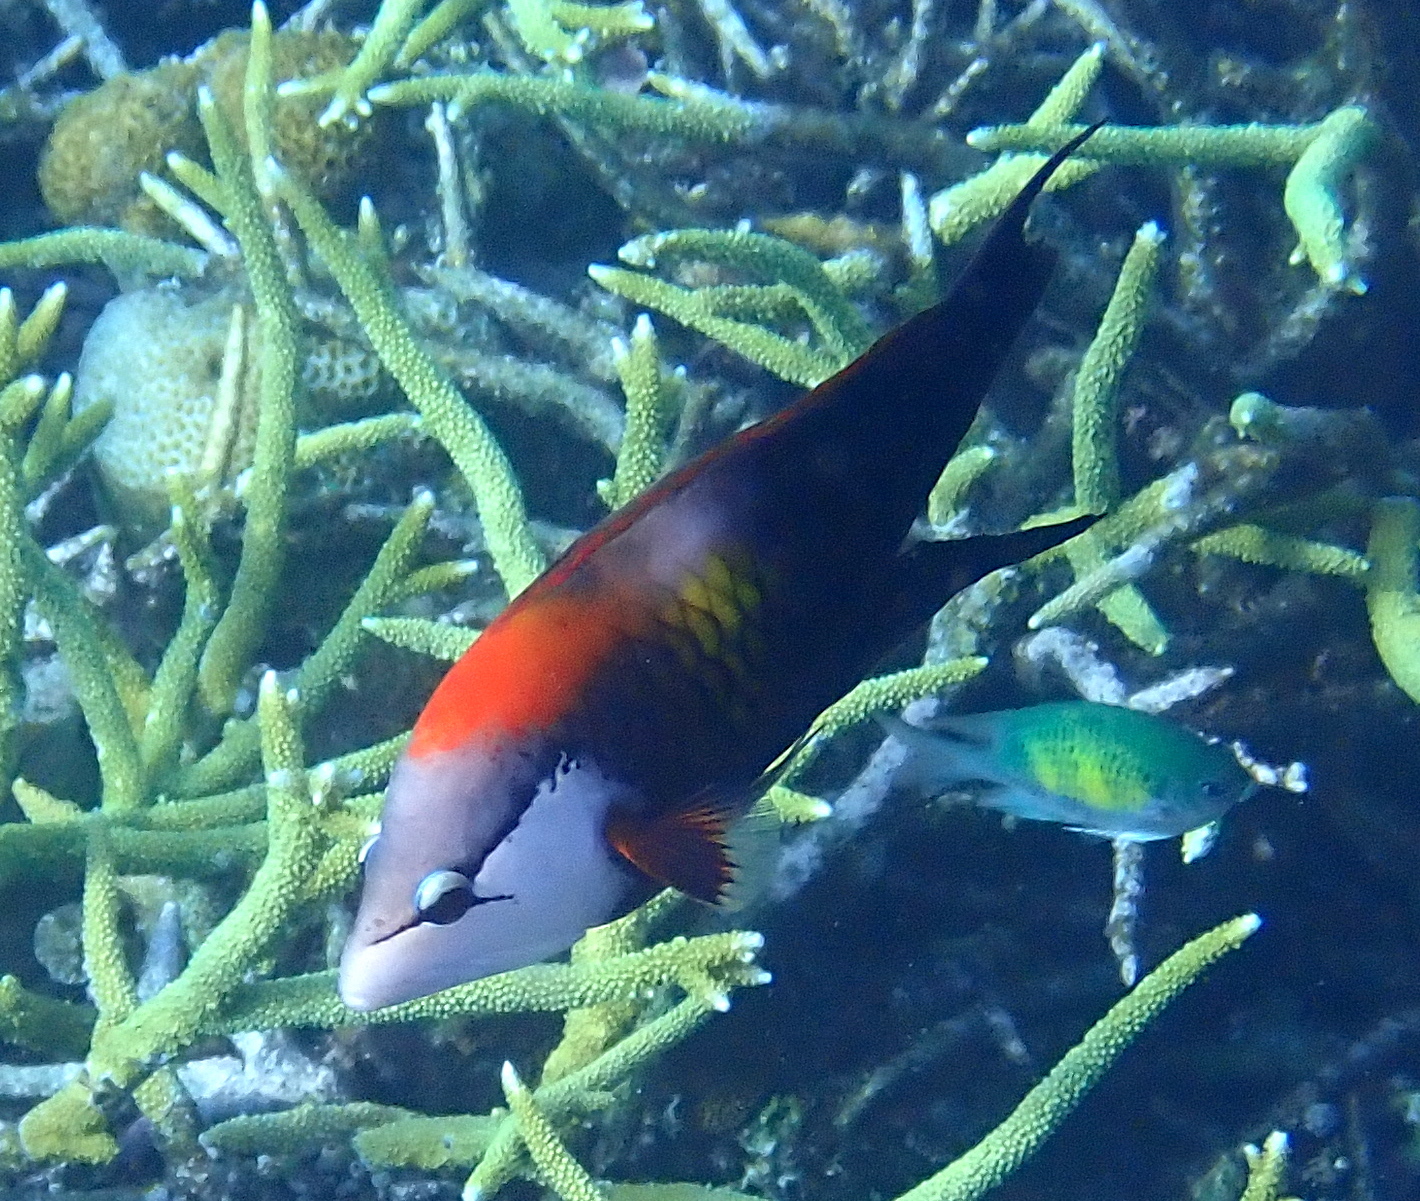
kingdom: Animalia
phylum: Chordata
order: Perciformes
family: Labridae
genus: Epibulus
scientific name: Epibulus insidiator
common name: Slingjaw wrasse
